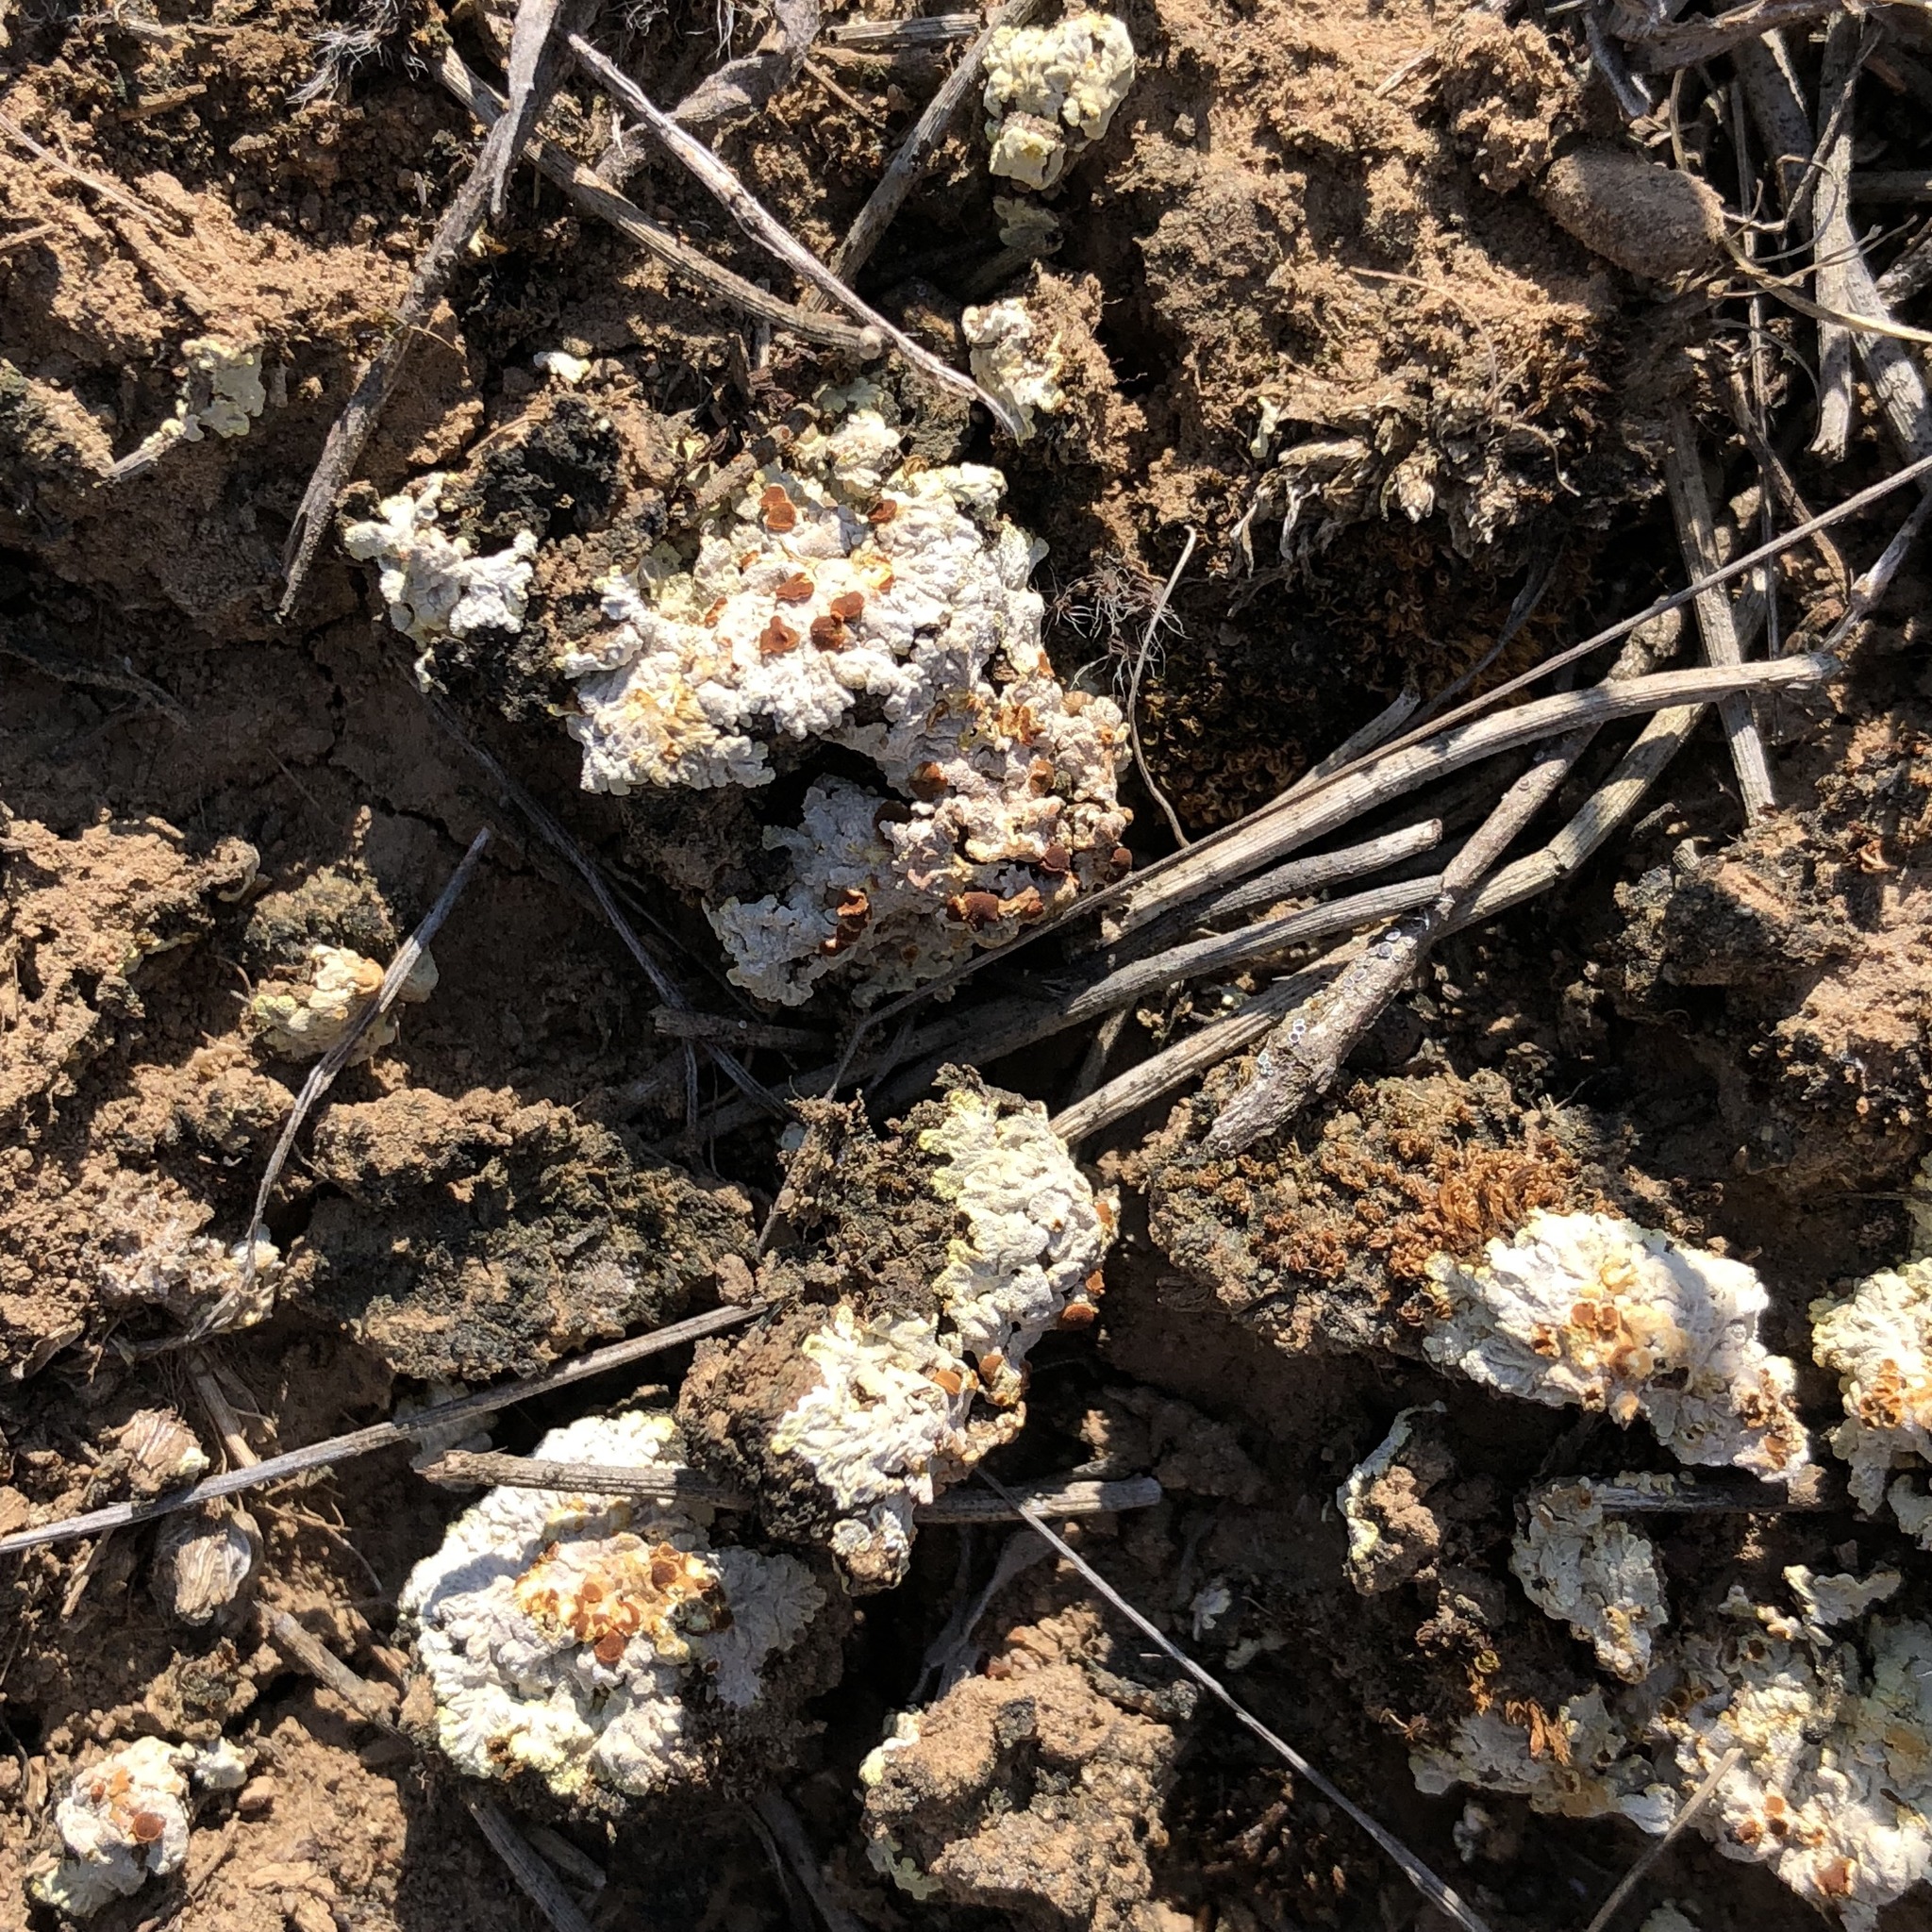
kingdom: Fungi
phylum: Ascomycota
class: Lecanoromycetes
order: Teloschistales
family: Teloschistaceae
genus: Gyalolechia
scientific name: Gyalolechia fulgens
